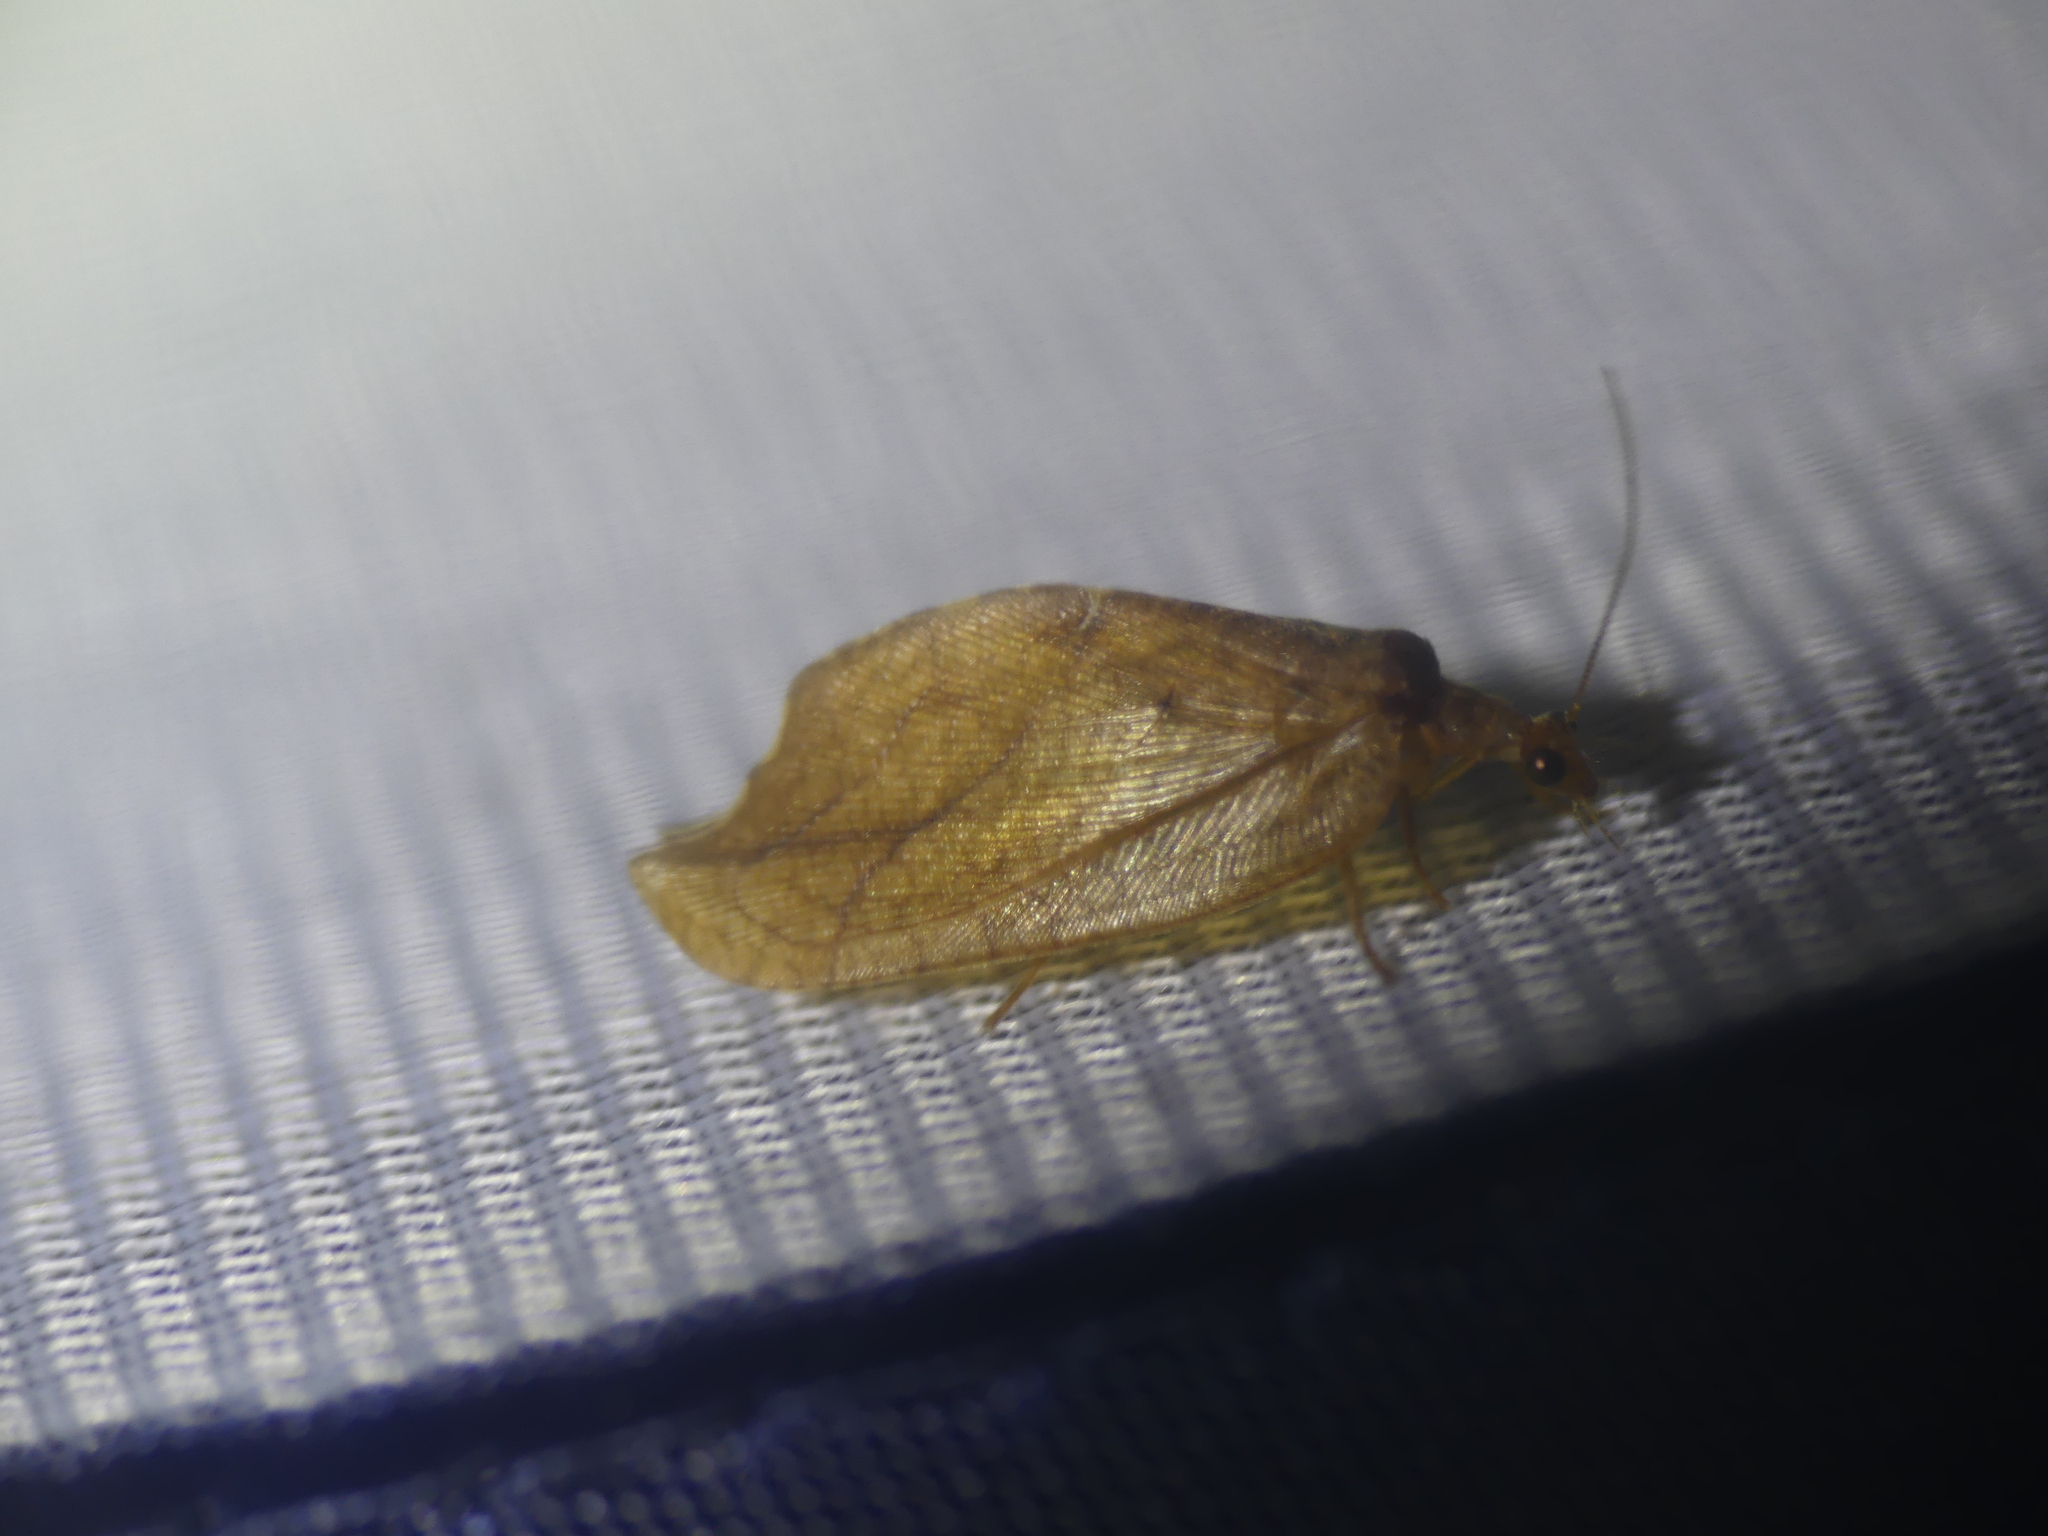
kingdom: Animalia
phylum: Arthropoda
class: Insecta
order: Neuroptera
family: Hemerobiidae
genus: Drepanepteryx
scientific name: Drepanepteryx phalaenoides
